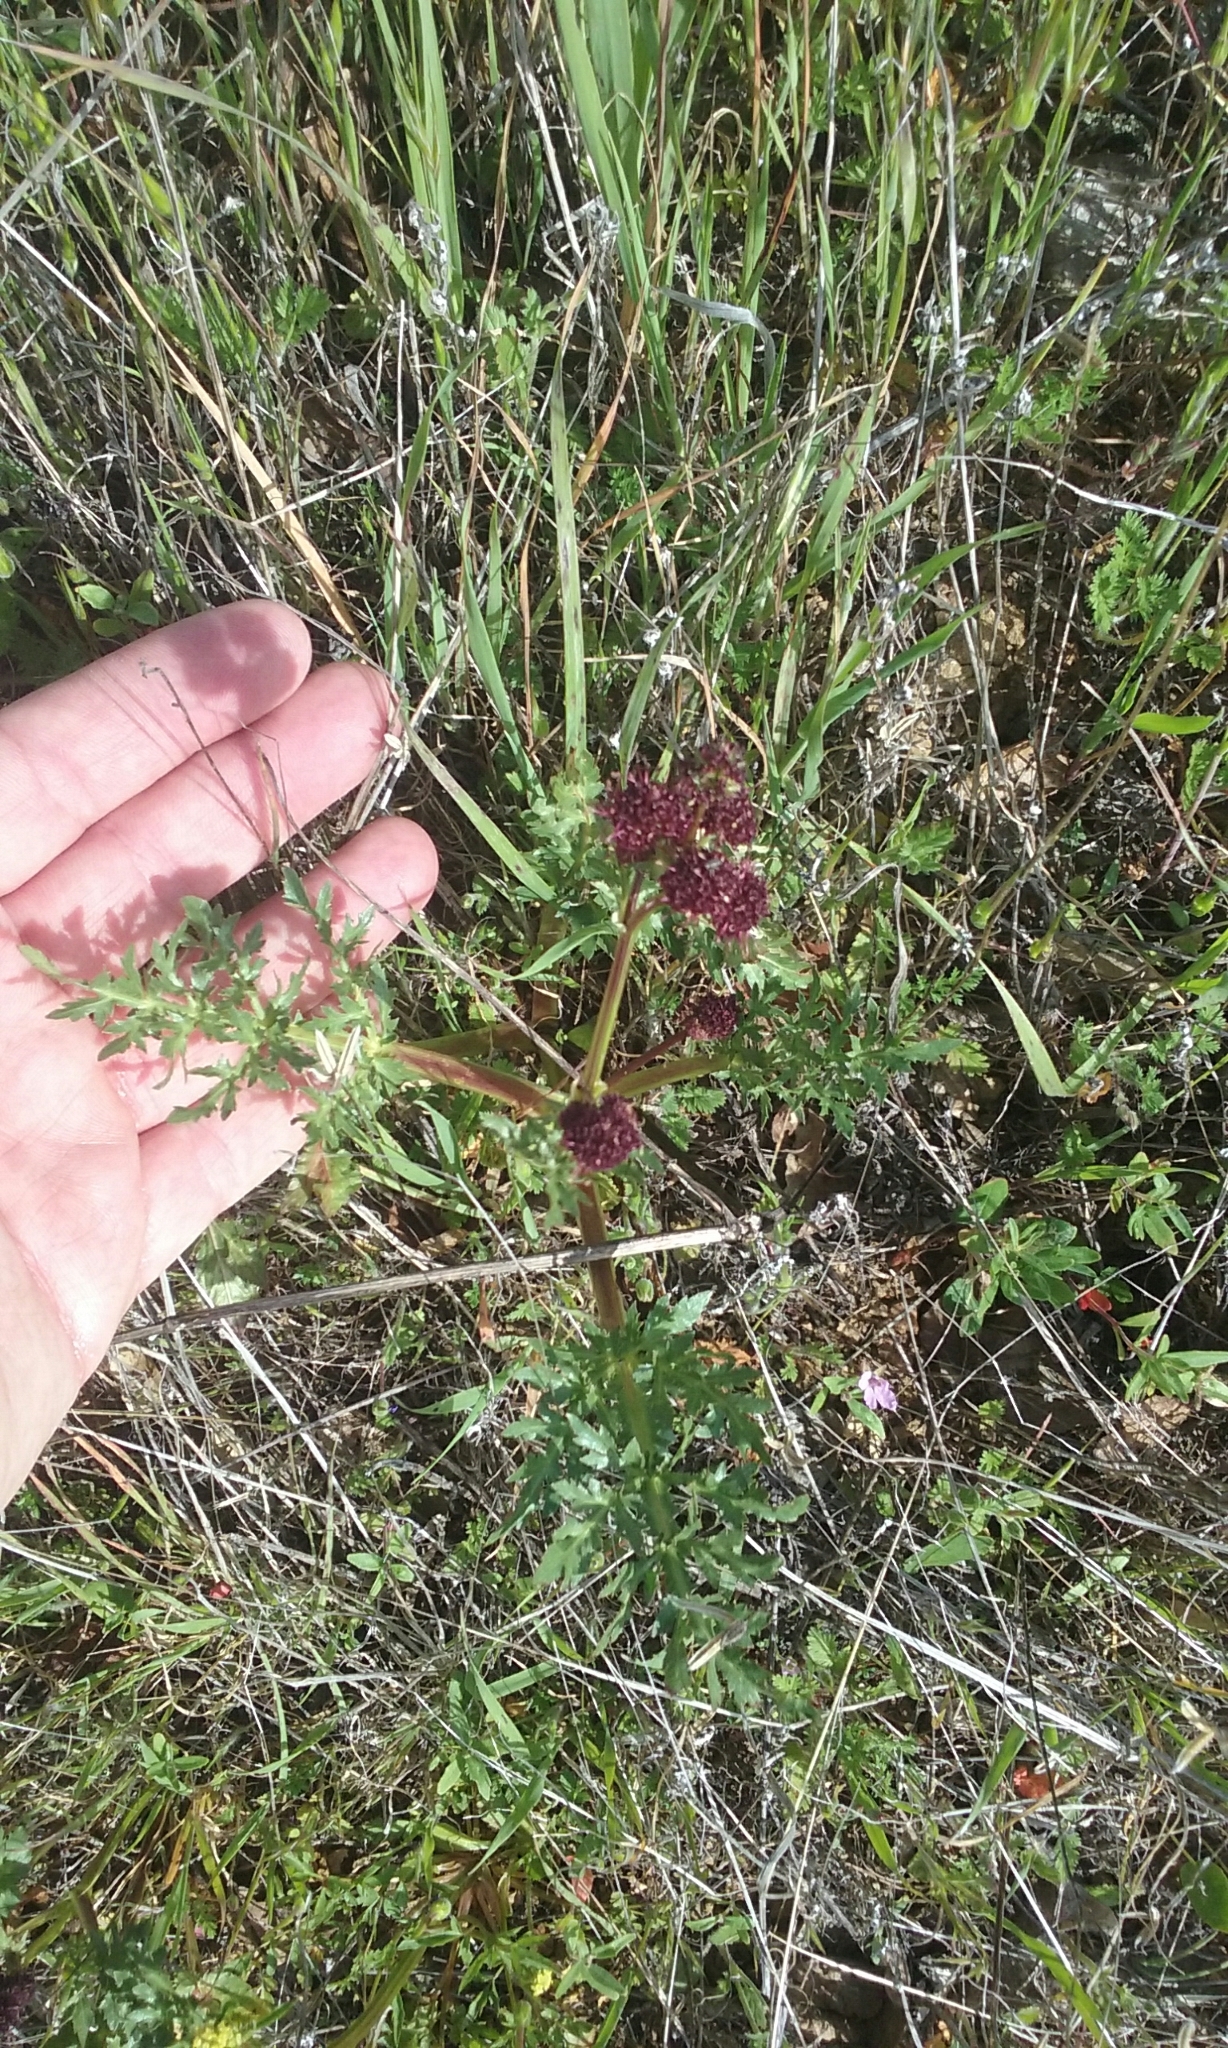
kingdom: Plantae
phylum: Tracheophyta
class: Magnoliopsida
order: Apiales
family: Apiaceae
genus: Sanicula
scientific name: Sanicula bipinnatifida
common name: Shoe-buttons
